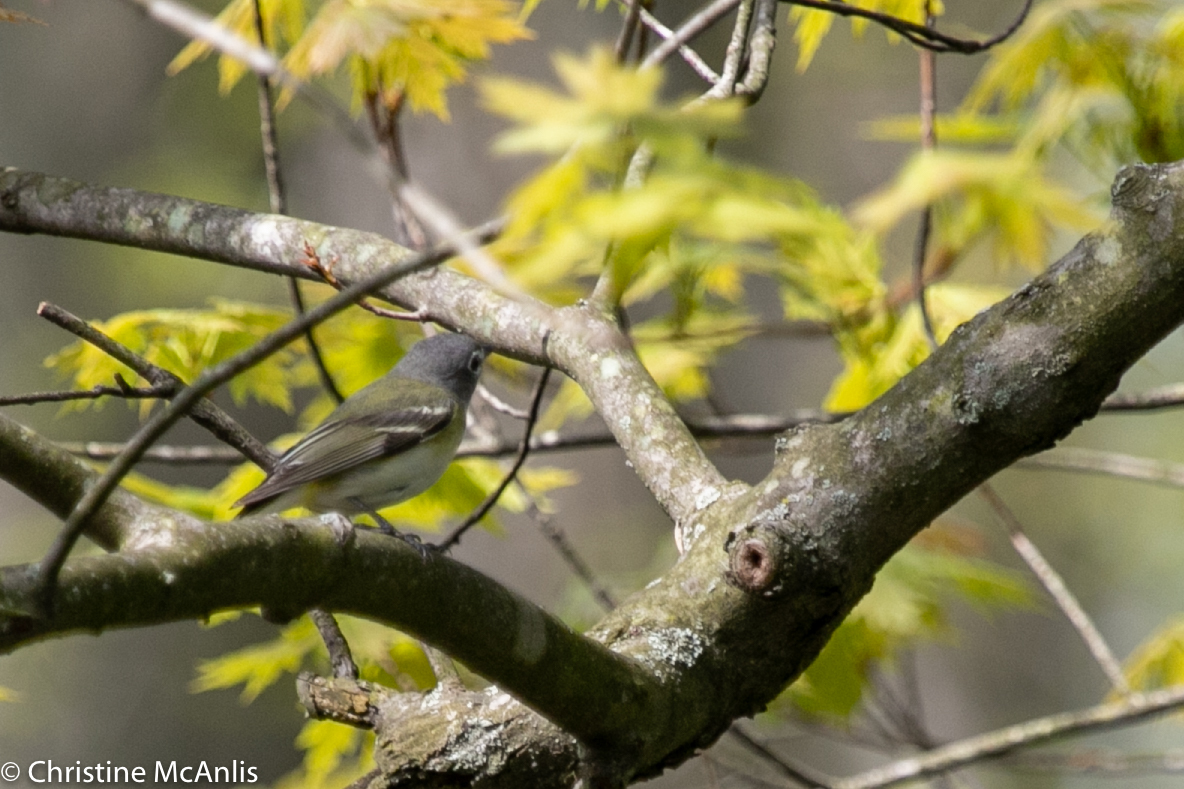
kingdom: Animalia
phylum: Chordata
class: Aves
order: Passeriformes
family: Vireonidae
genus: Vireo
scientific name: Vireo solitarius
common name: Blue-headed vireo
